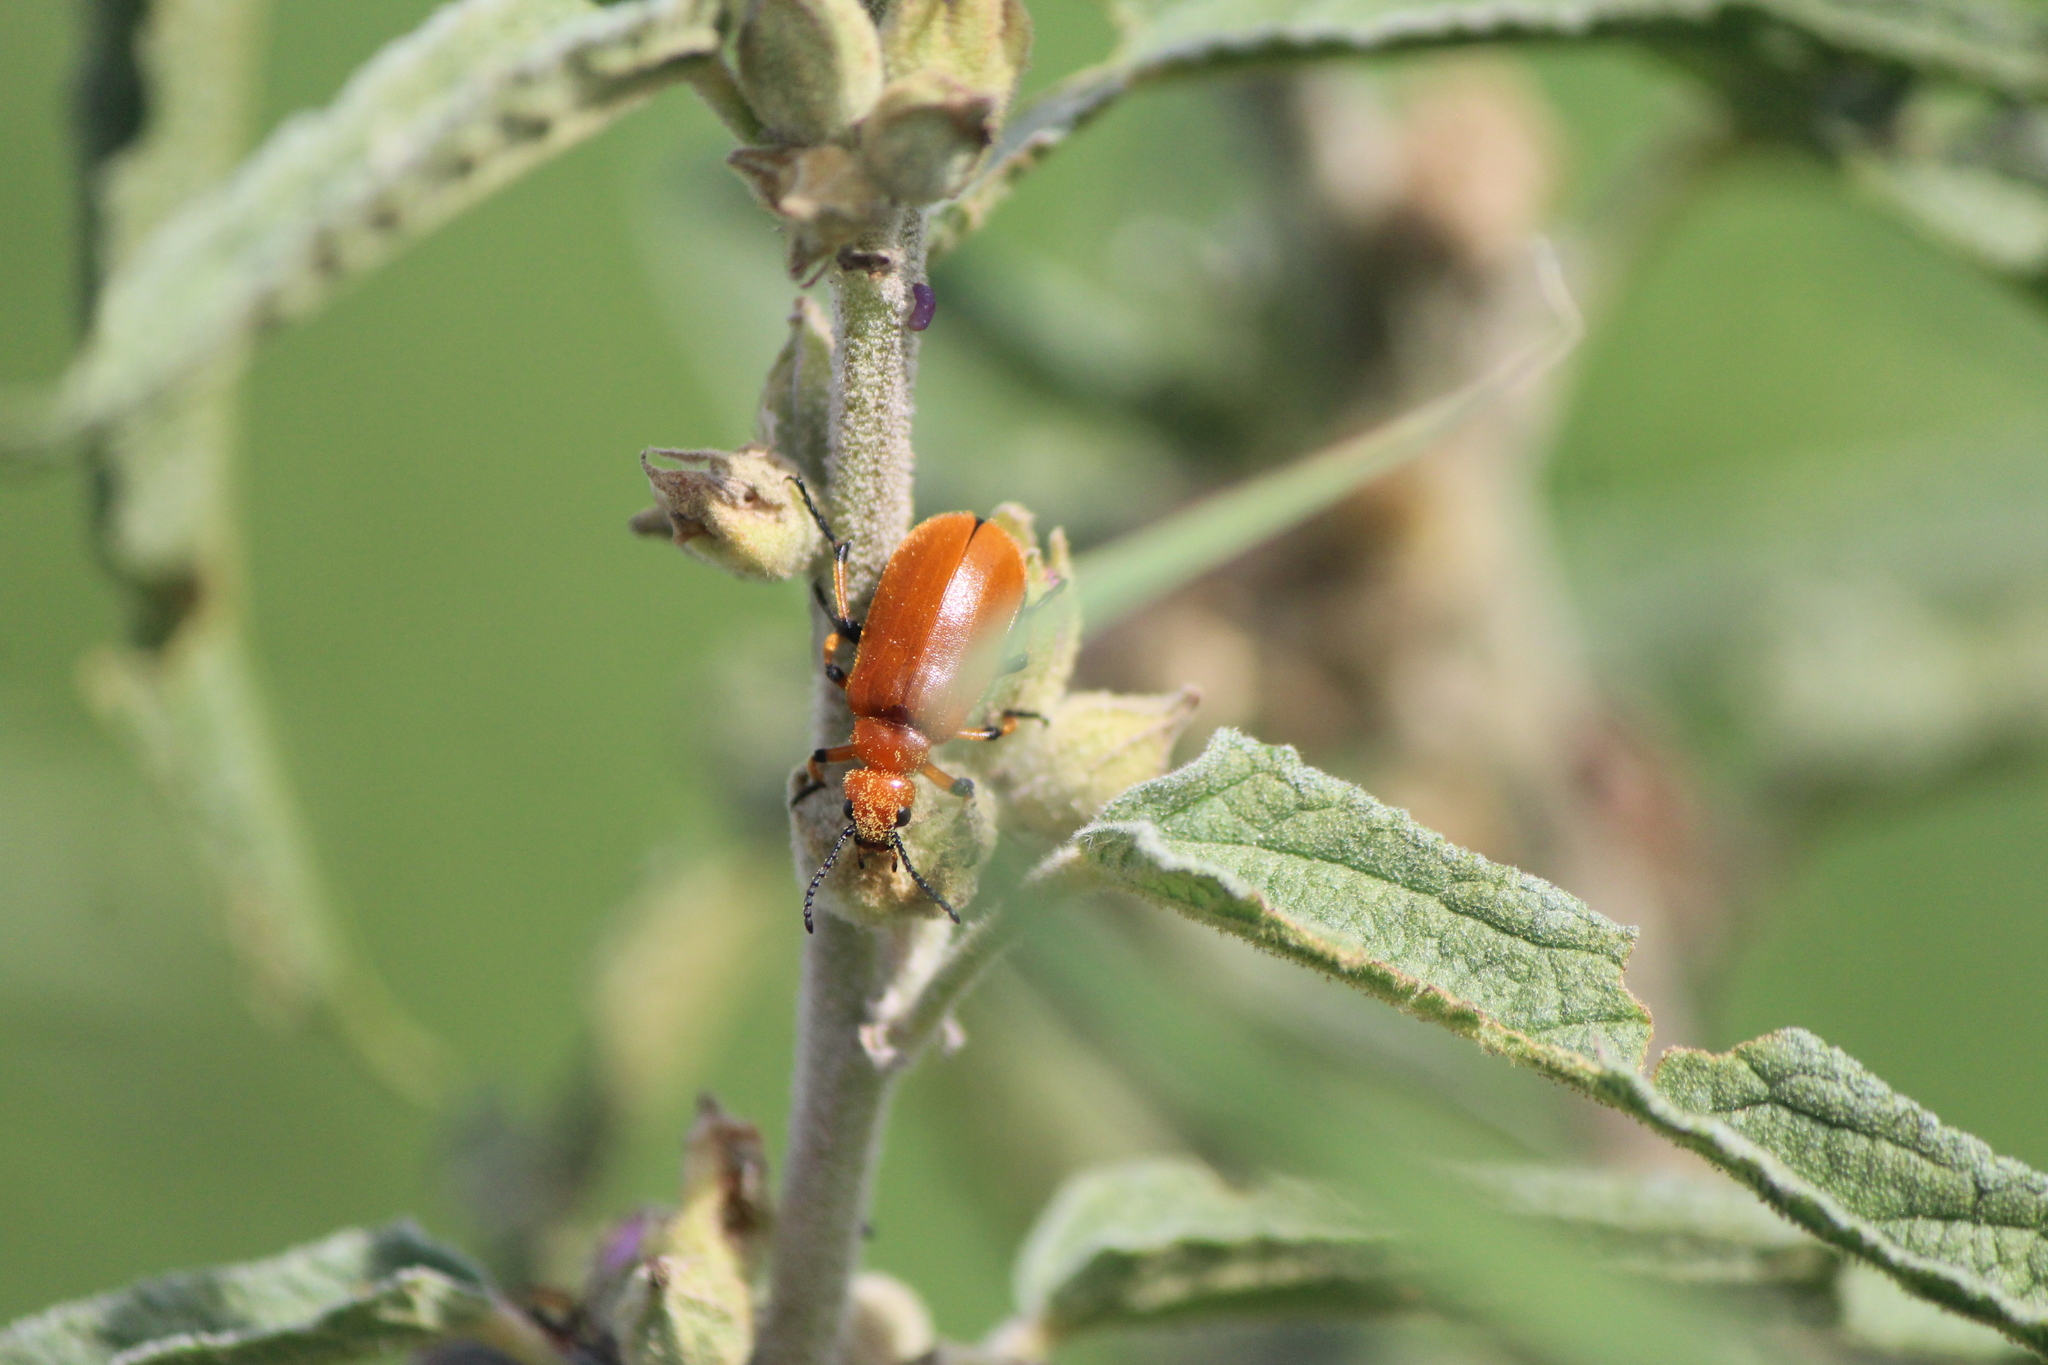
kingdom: Animalia
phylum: Arthropoda
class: Insecta
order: Coleoptera
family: Meloidae
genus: Tetraonyx
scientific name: Tetraonyx fulva
